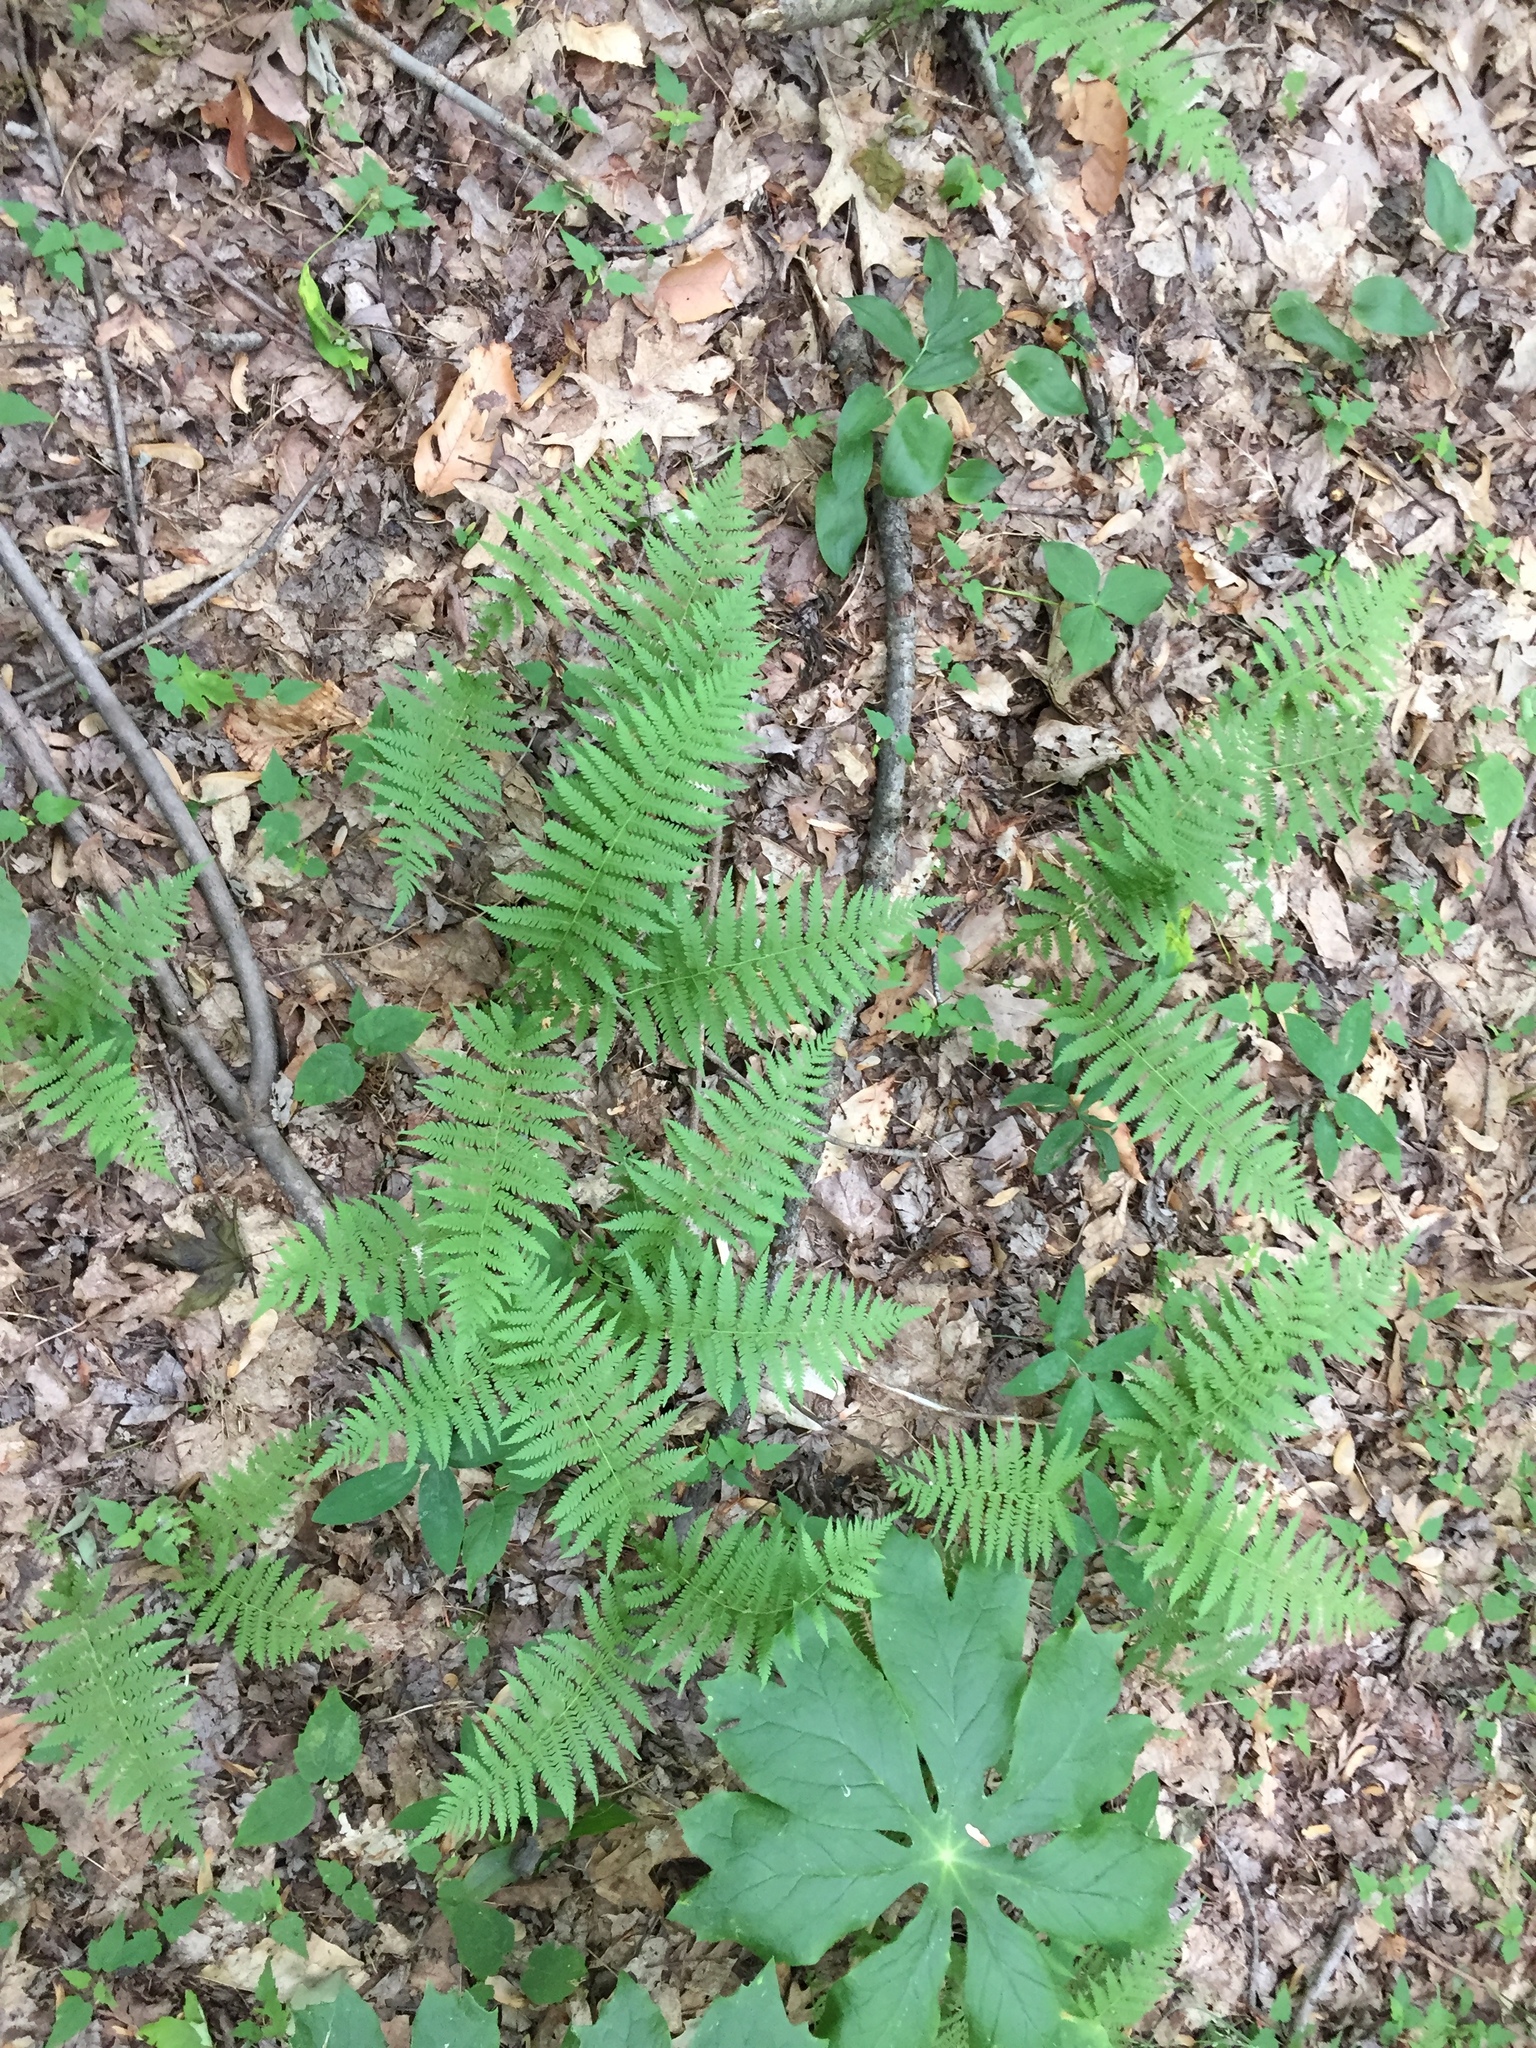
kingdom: Plantae
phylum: Tracheophyta
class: Polypodiopsida
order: Polypodiales
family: Thelypteridaceae
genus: Amauropelta
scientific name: Amauropelta noveboracensis
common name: New york fern
